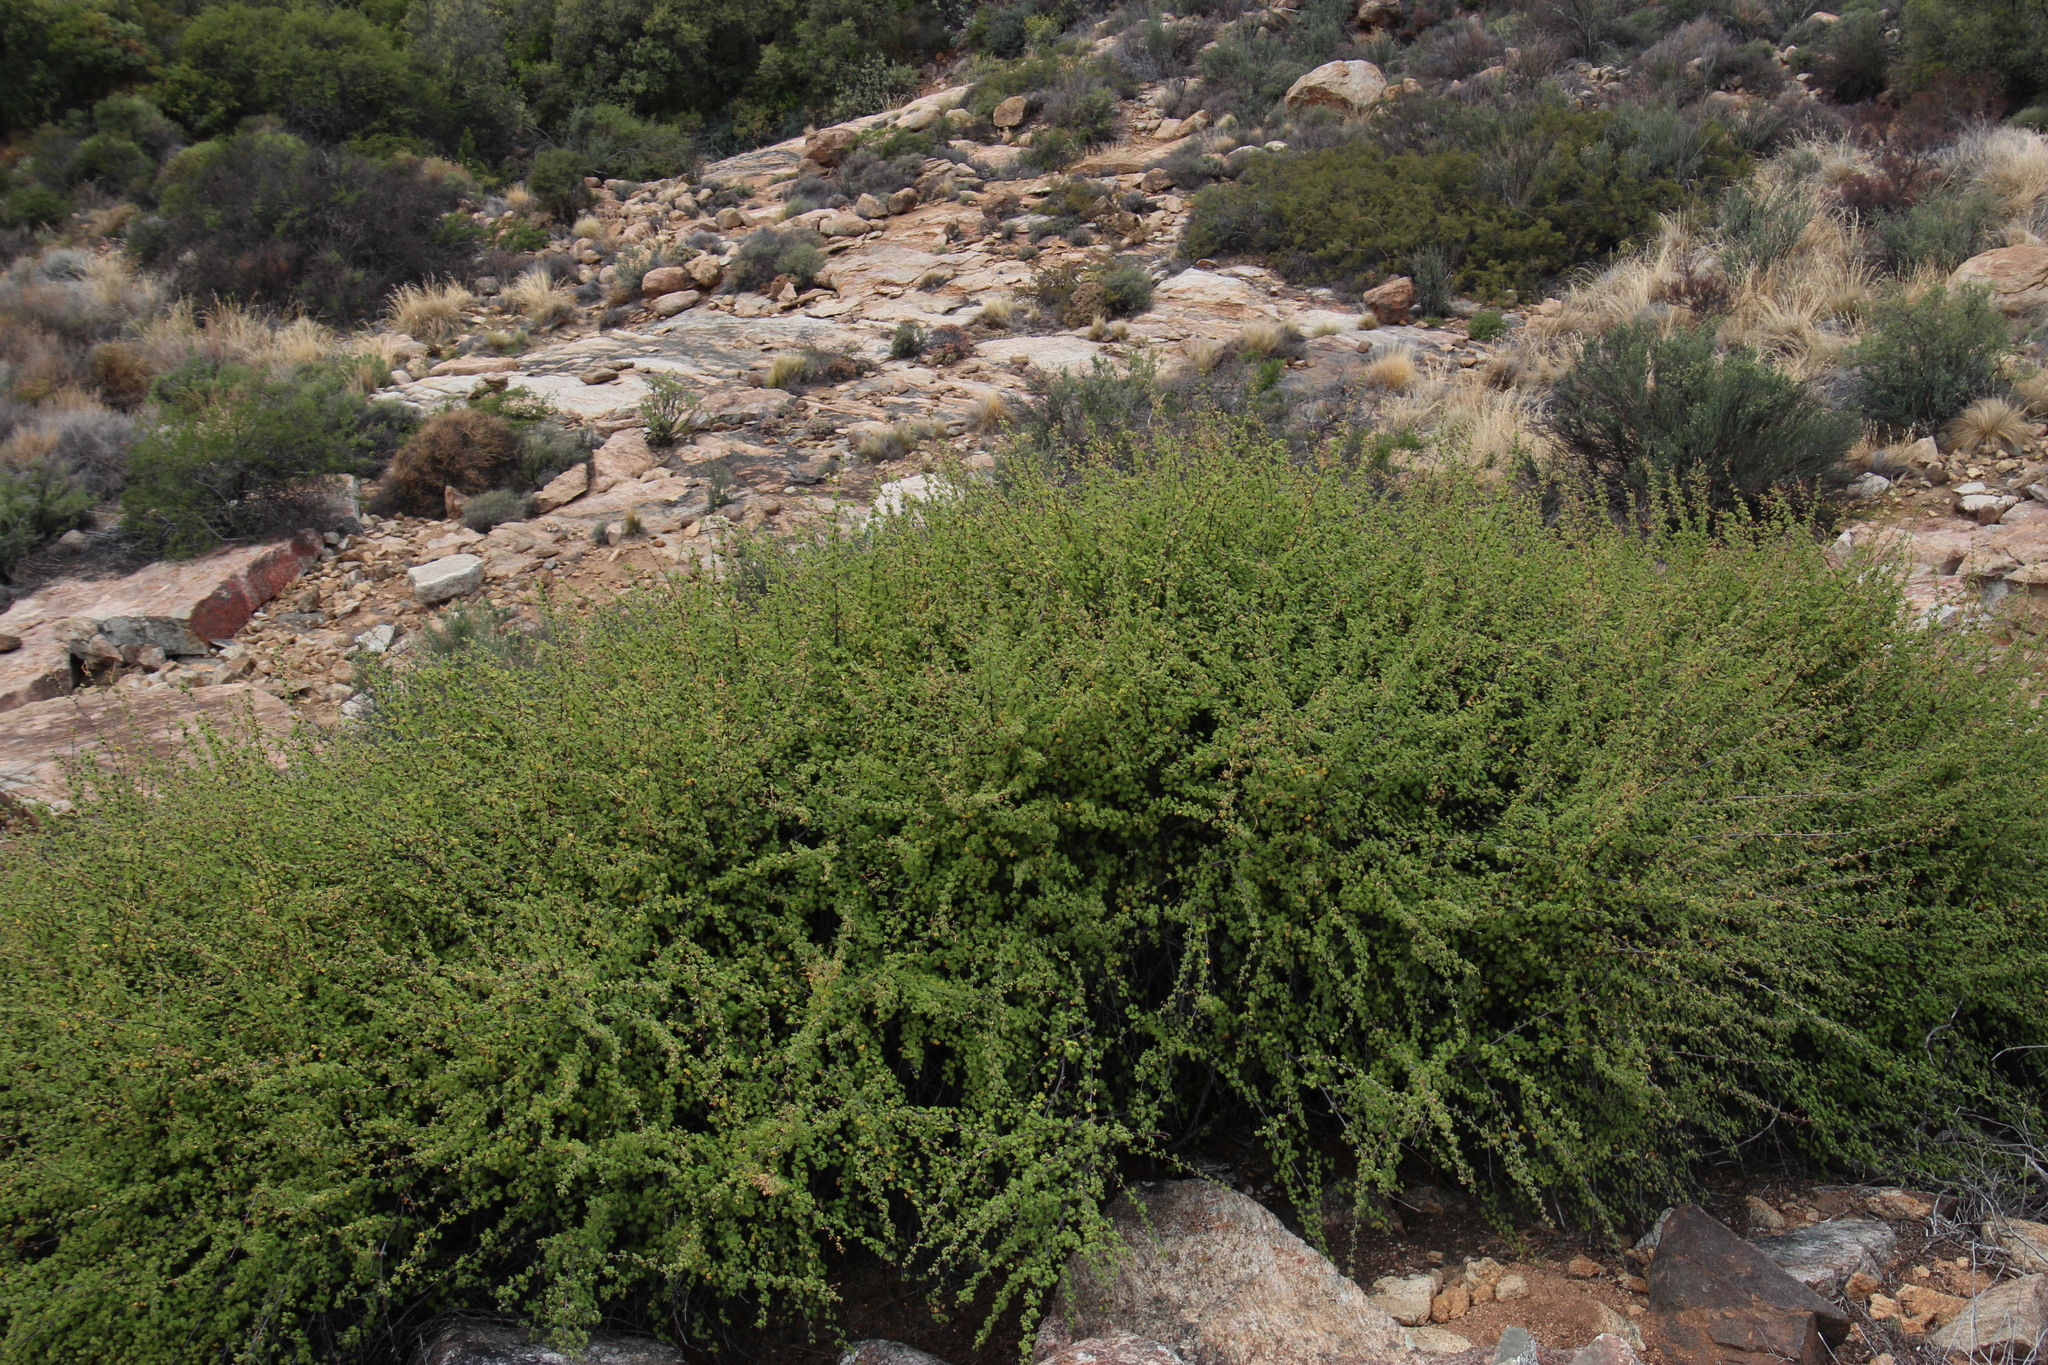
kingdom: Plantae
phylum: Tracheophyta
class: Magnoliopsida
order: Geraniales
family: Geraniaceae
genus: Pelargonium
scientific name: Pelargonium antidysentericum
